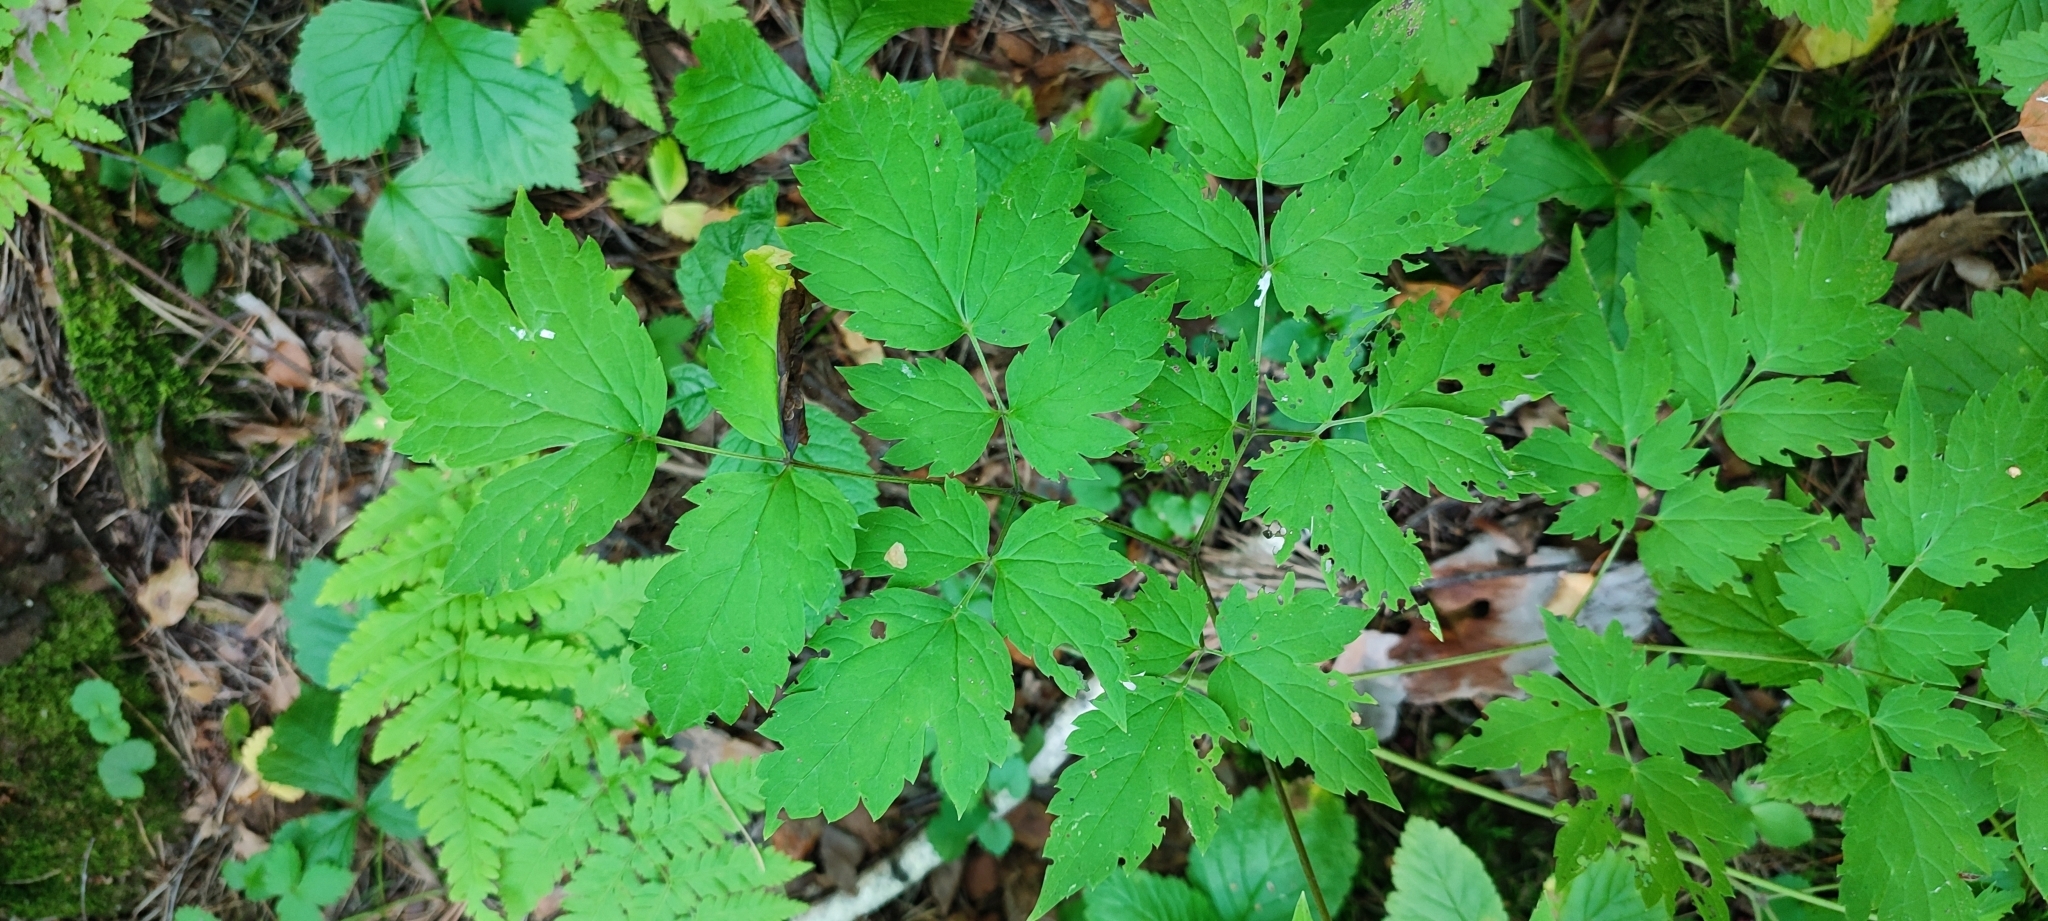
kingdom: Plantae
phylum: Tracheophyta
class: Magnoliopsida
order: Ranunculales
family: Ranunculaceae
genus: Actaea
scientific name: Actaea erythrocarpa
